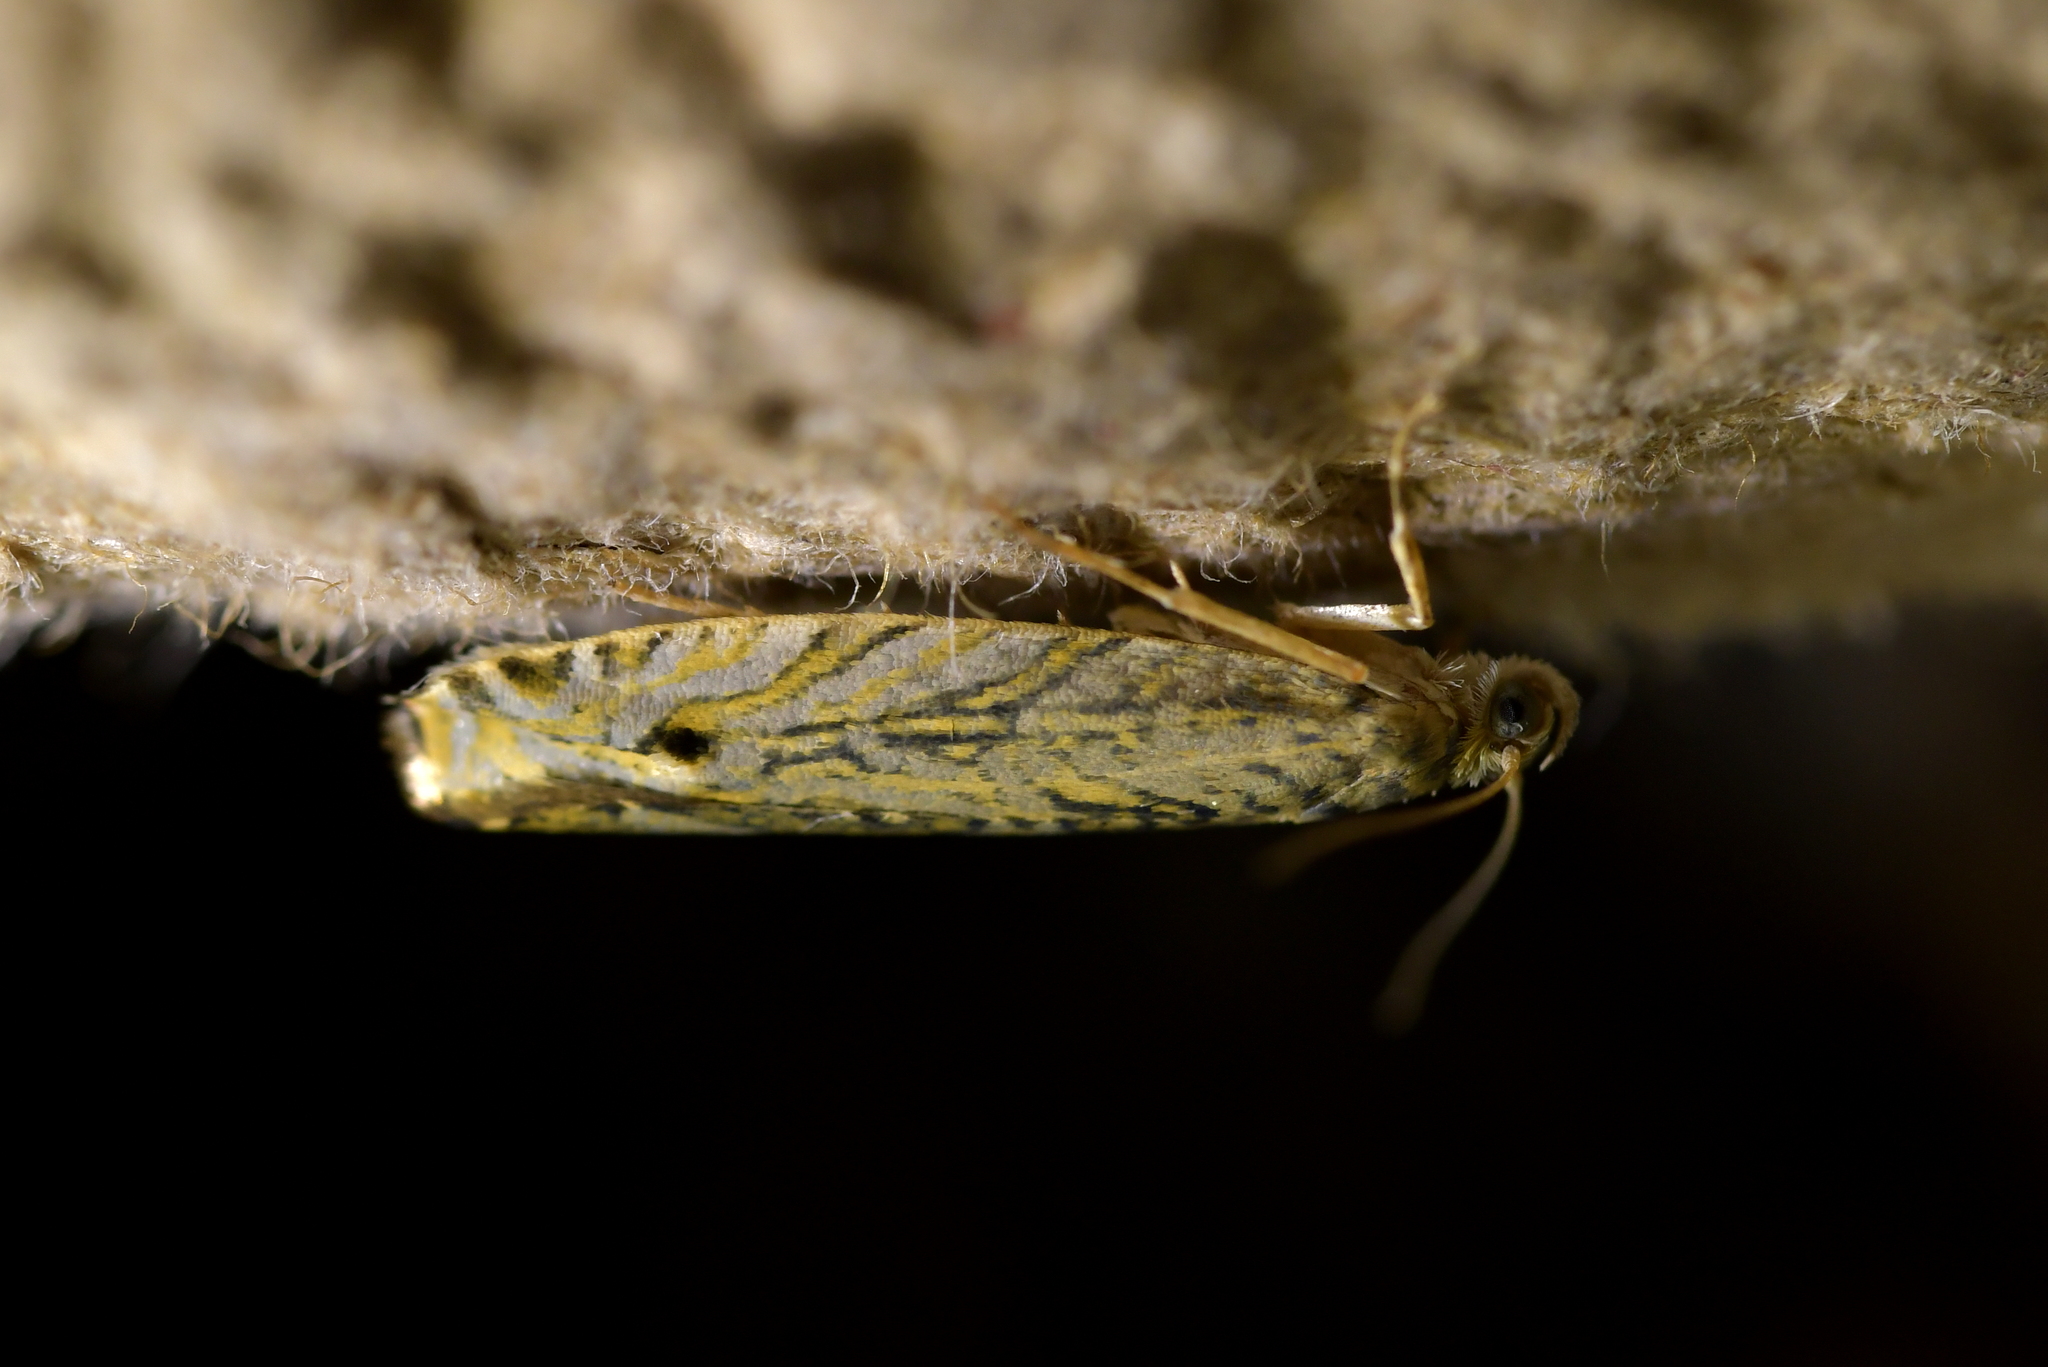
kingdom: Animalia
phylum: Arthropoda
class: Insecta
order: Lepidoptera
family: Plutellidae
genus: Doxophyrtis
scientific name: Doxophyrtis hydrocosma
